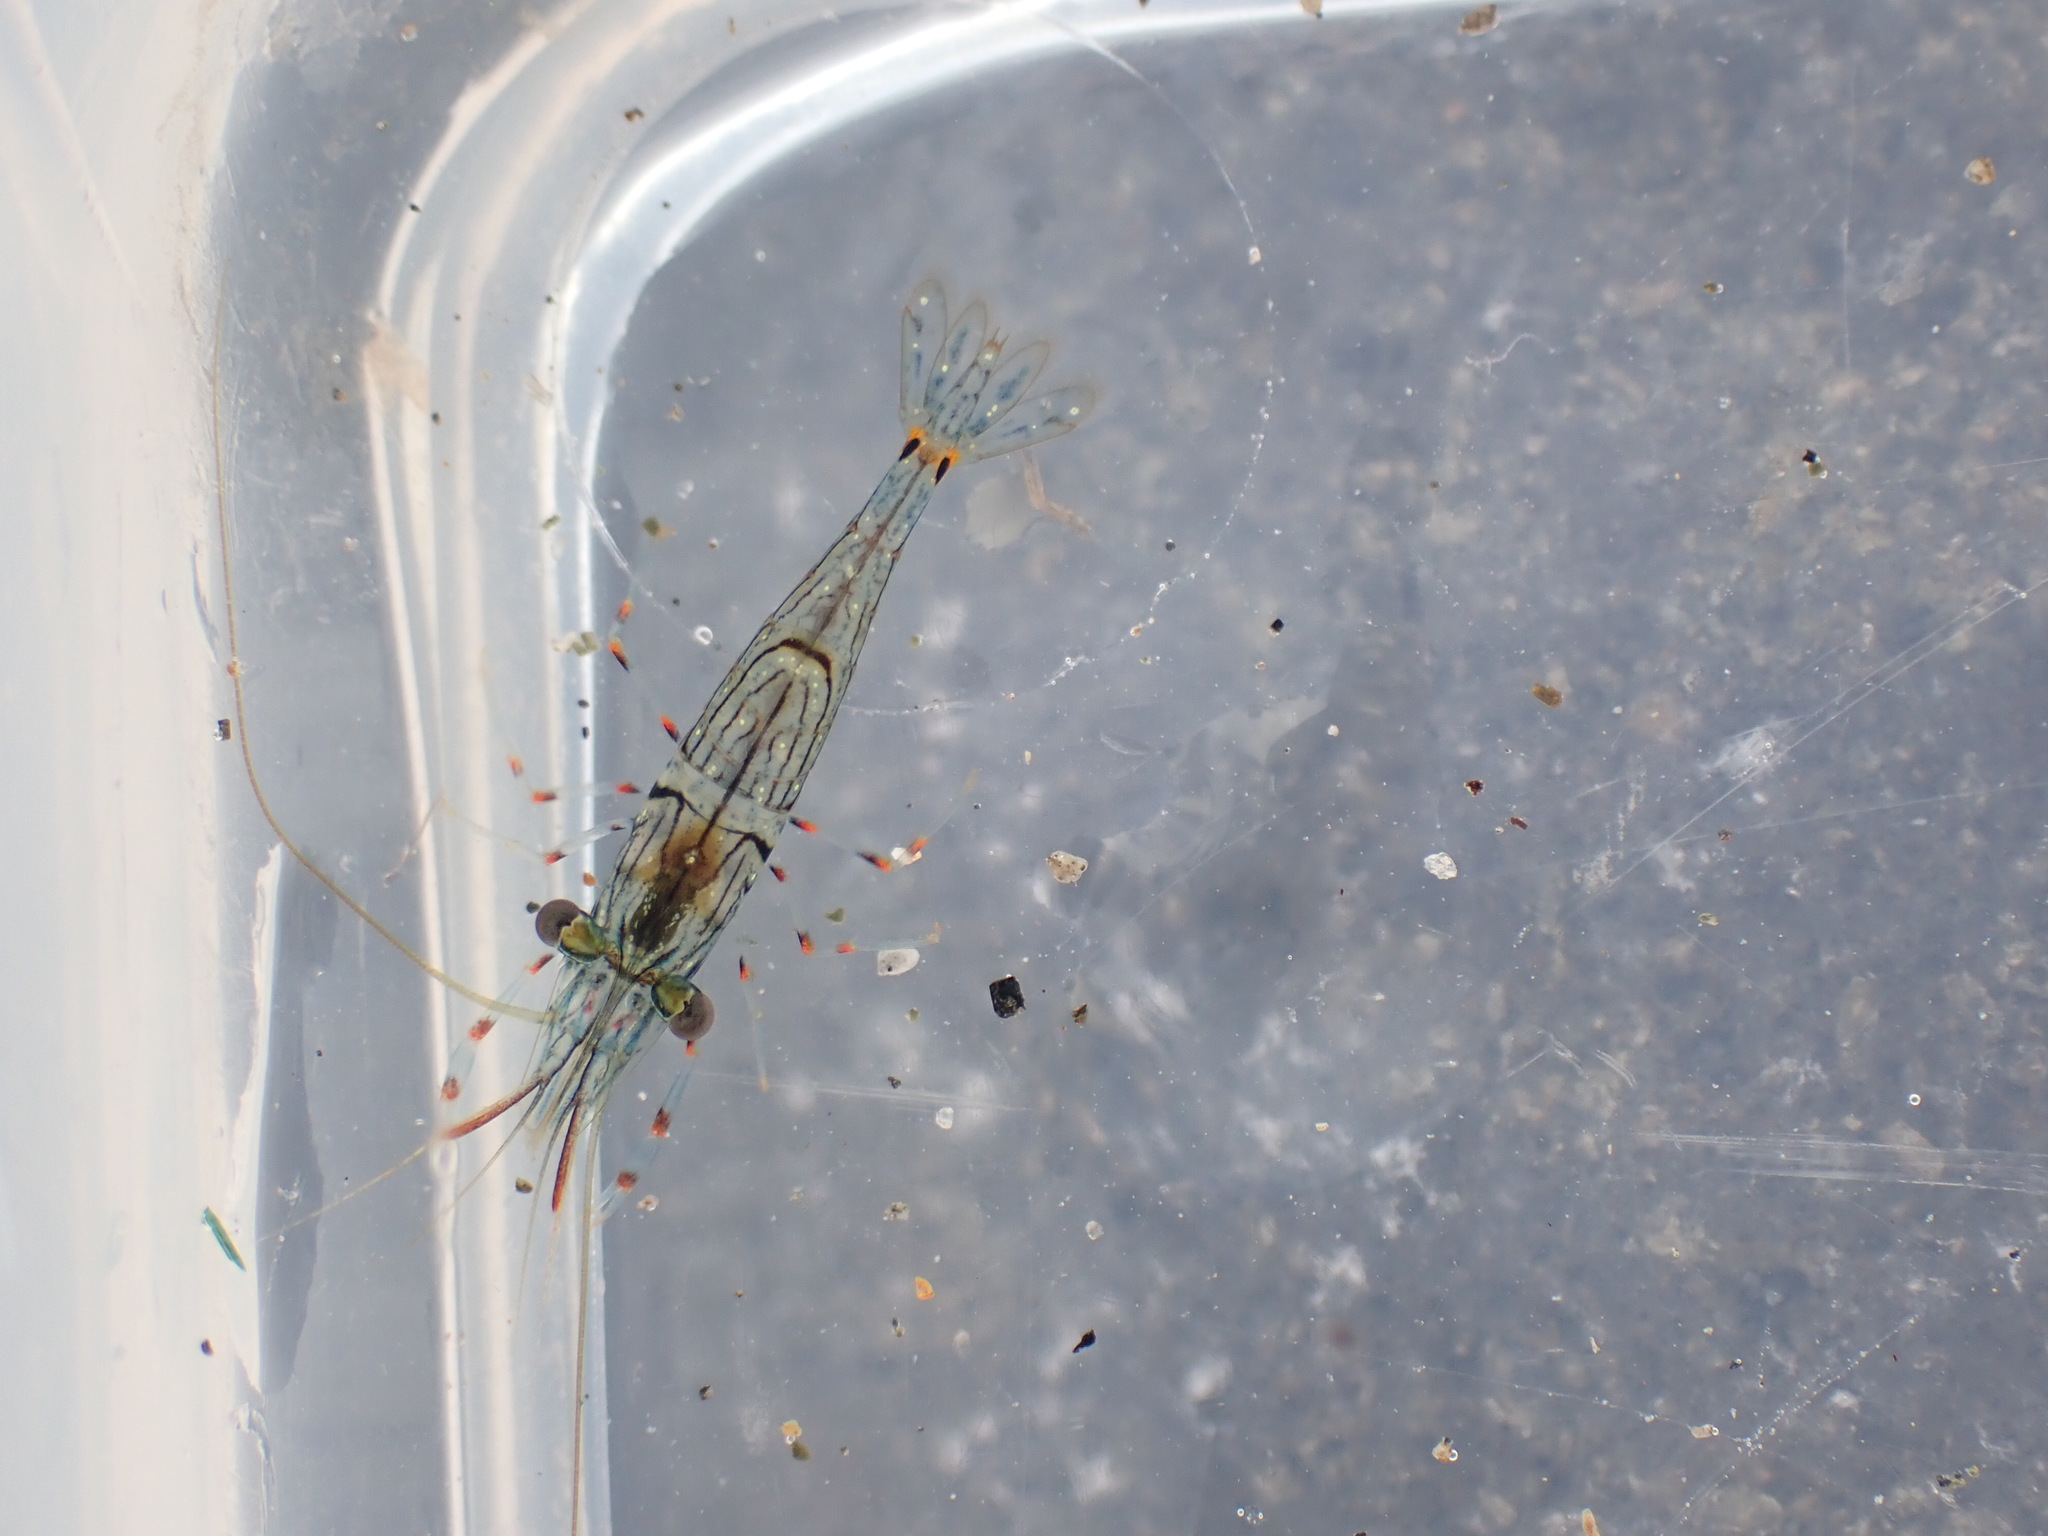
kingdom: Animalia
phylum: Arthropoda
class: Malacostraca
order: Decapoda
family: Palaemonidae
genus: Palaemon
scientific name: Palaemon affinis
